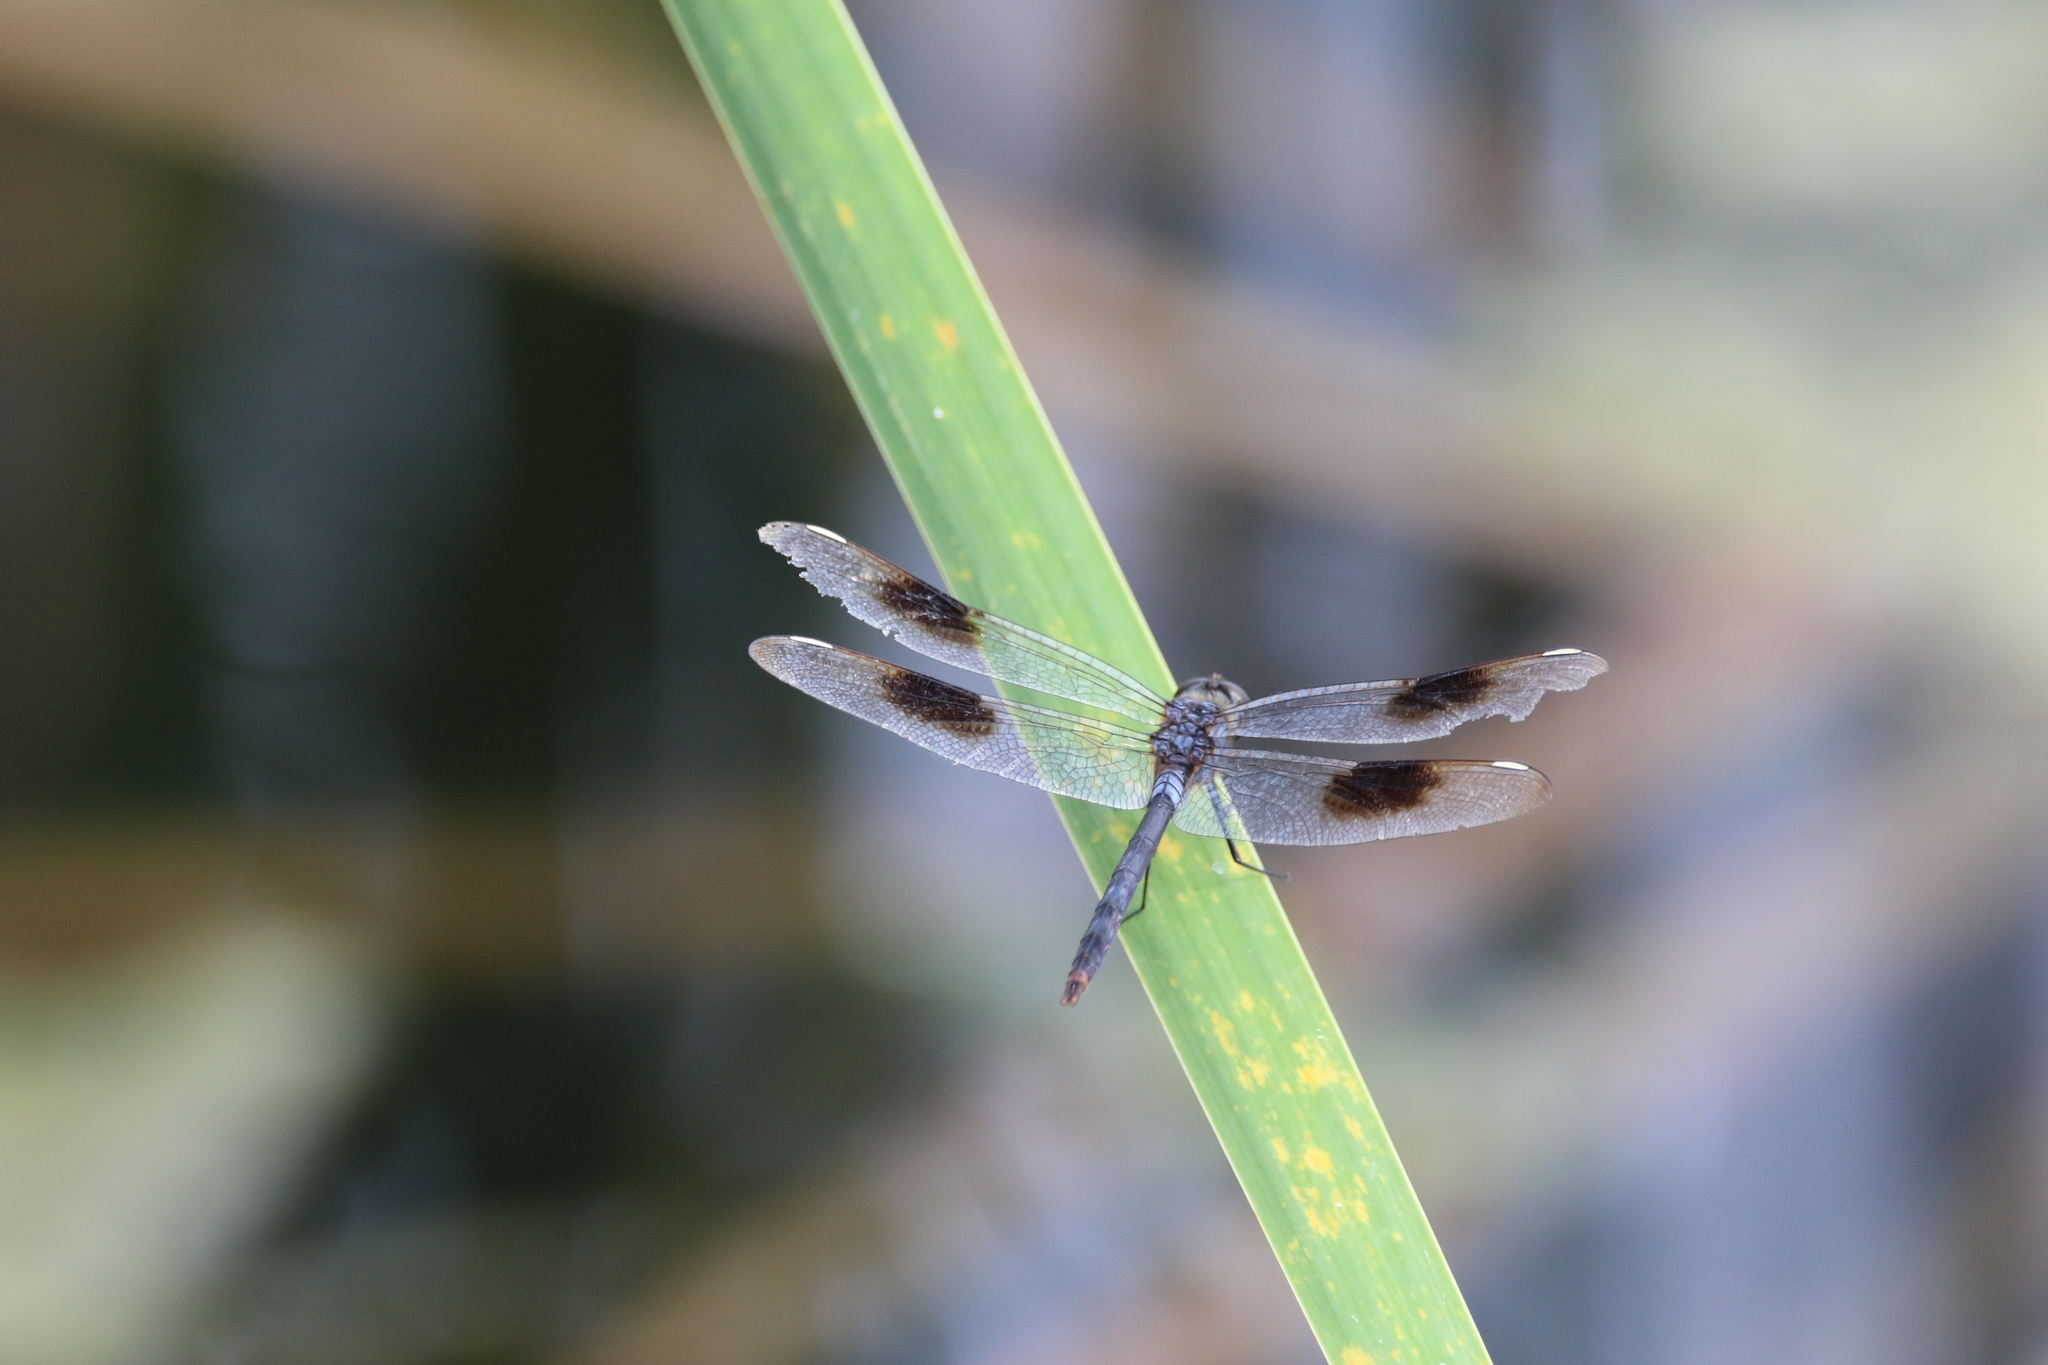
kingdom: Animalia
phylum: Arthropoda
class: Insecta
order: Odonata
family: Libellulidae
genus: Brachymesia
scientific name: Brachymesia gravida
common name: Four-spotted pennant
